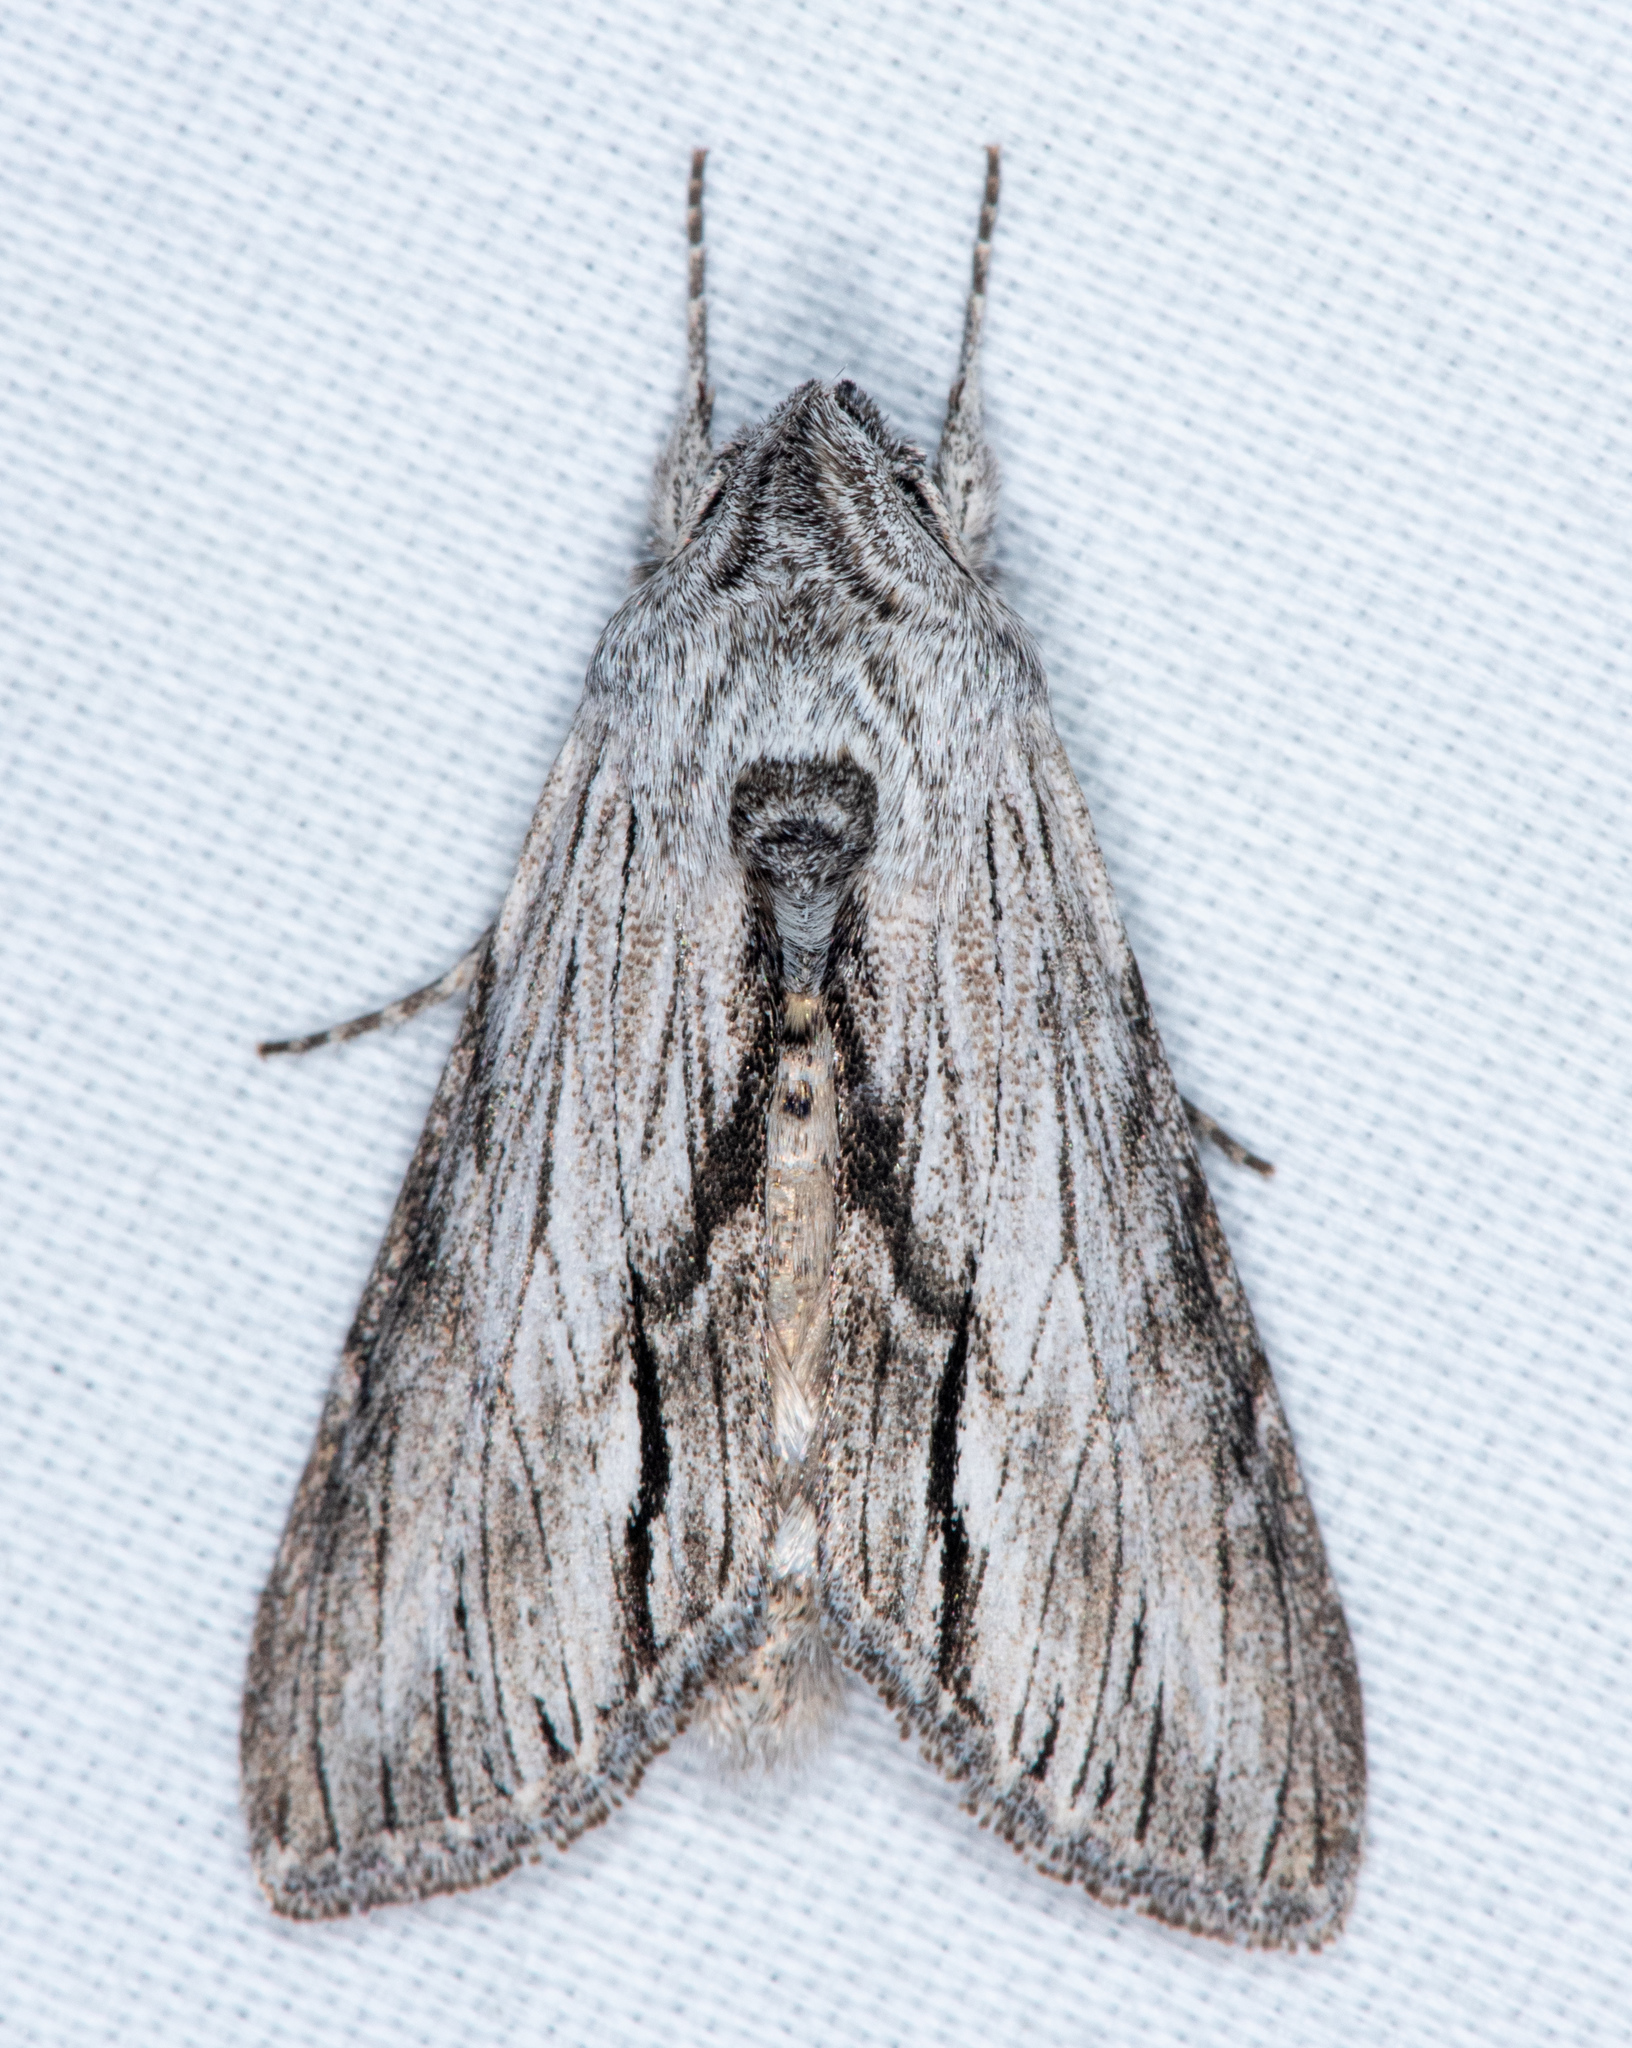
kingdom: Animalia
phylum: Arthropoda
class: Insecta
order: Lepidoptera
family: Noctuidae
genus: Cucullia
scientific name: Cucullia eulepis
